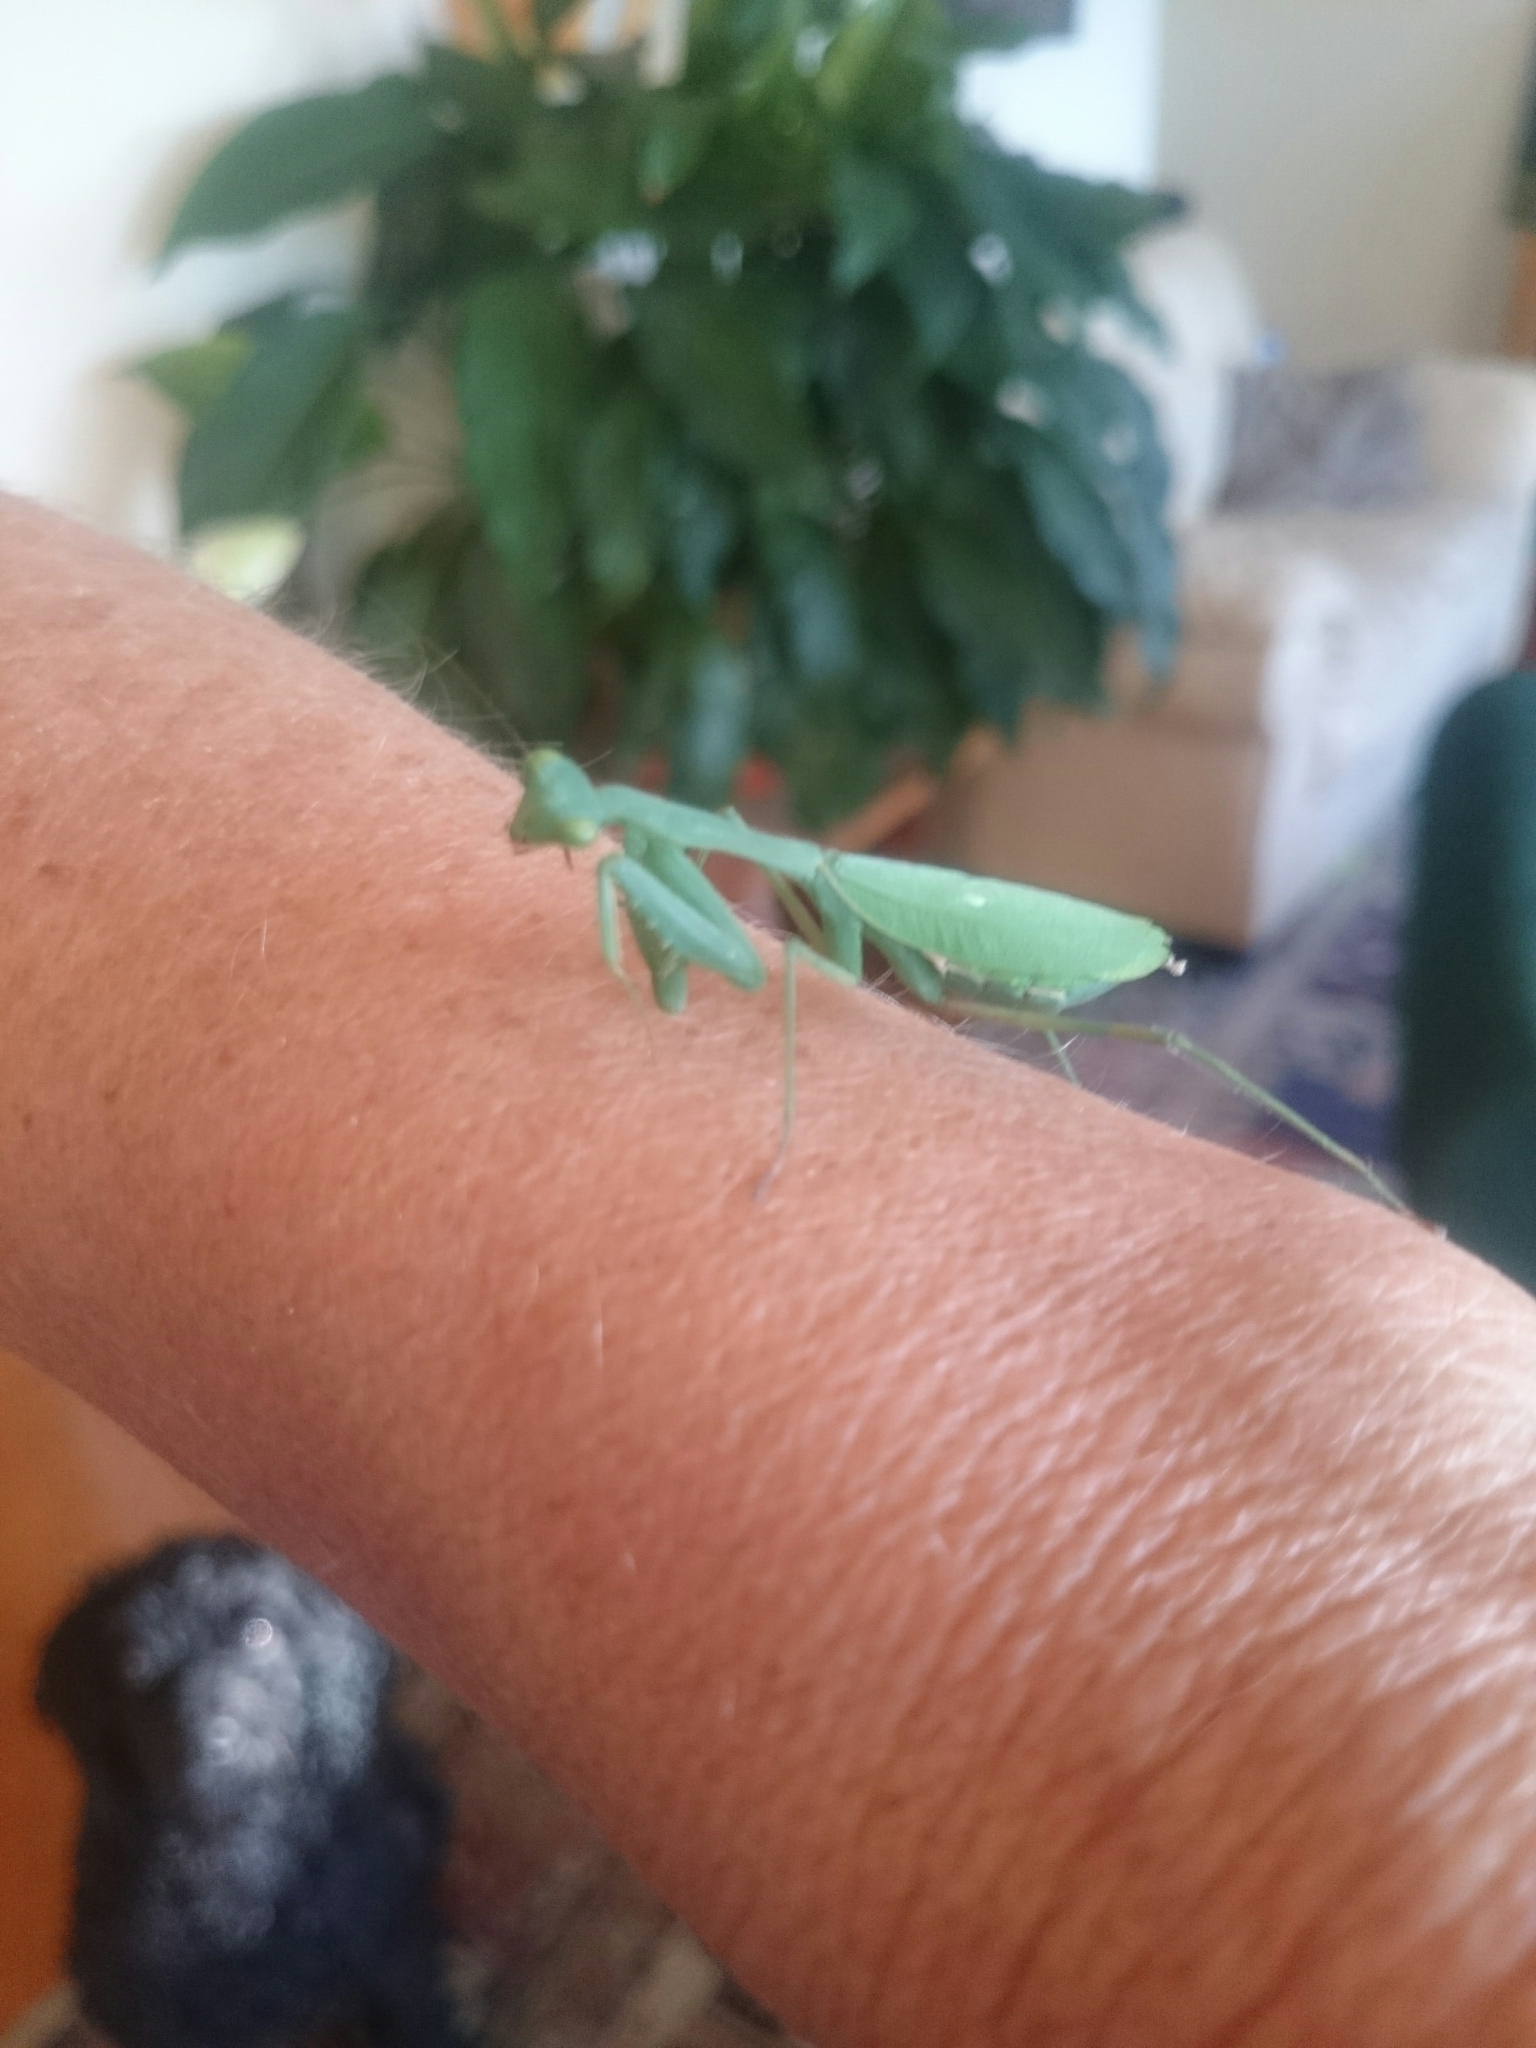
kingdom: Animalia
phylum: Arthropoda
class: Insecta
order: Mantodea
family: Miomantidae
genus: Miomantis
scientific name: Miomantis caffra
